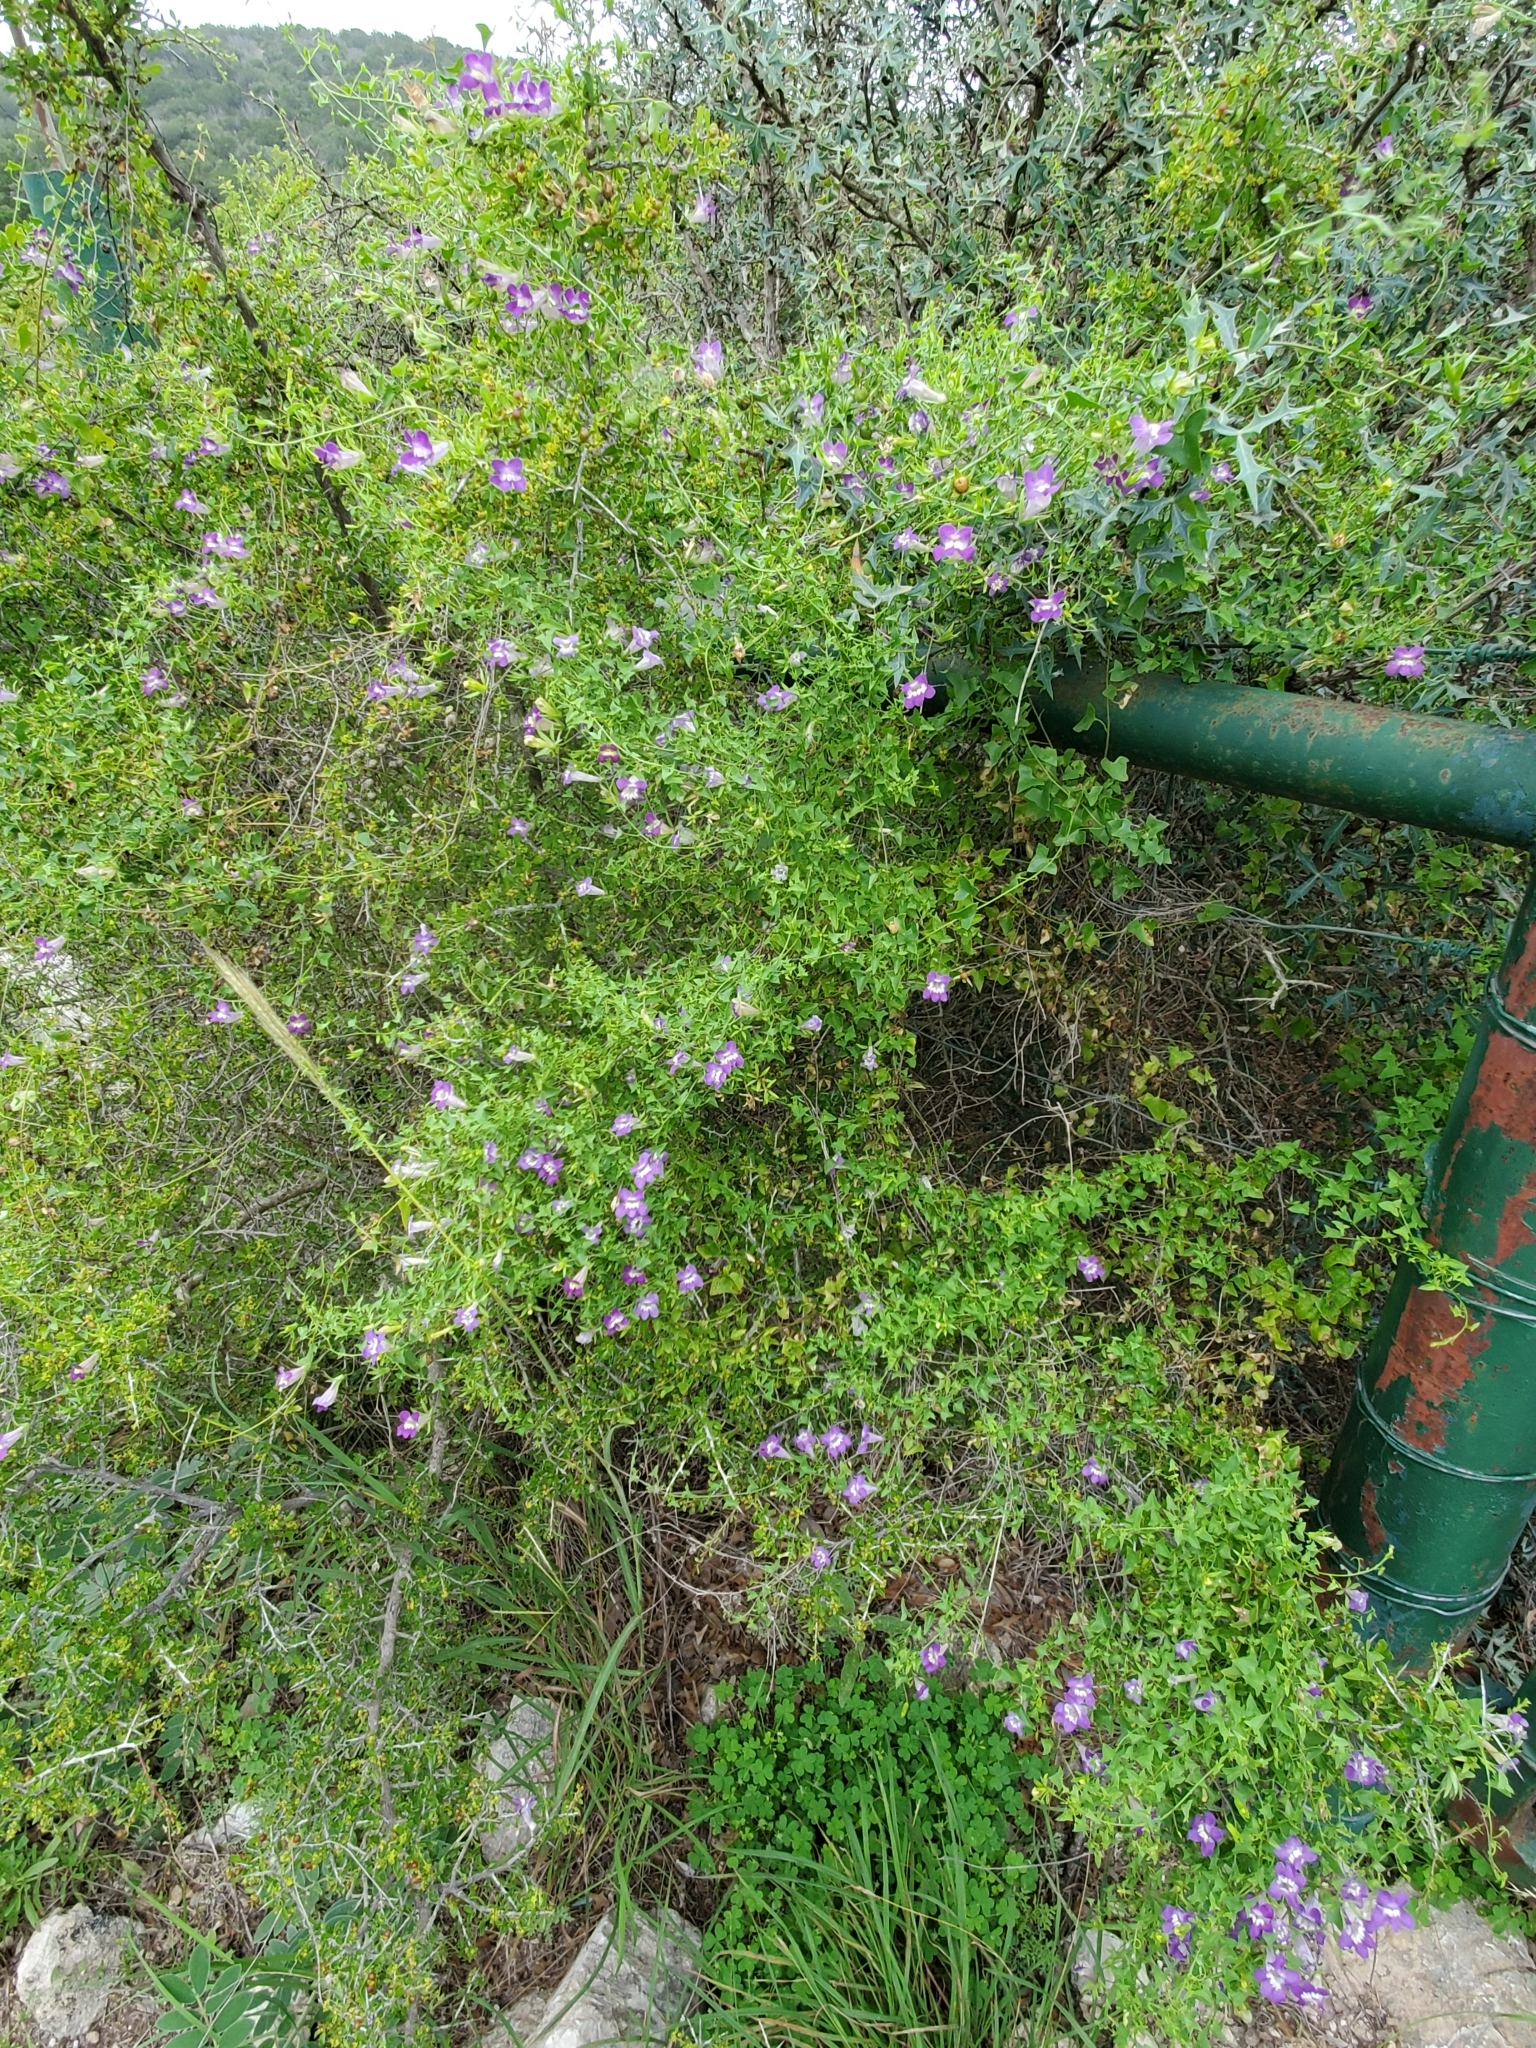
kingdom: Plantae
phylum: Tracheophyta
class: Magnoliopsida
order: Lamiales
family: Plantaginaceae
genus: Maurandella
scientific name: Maurandella antirrhiniflora
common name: Violet twining-snapdragon
